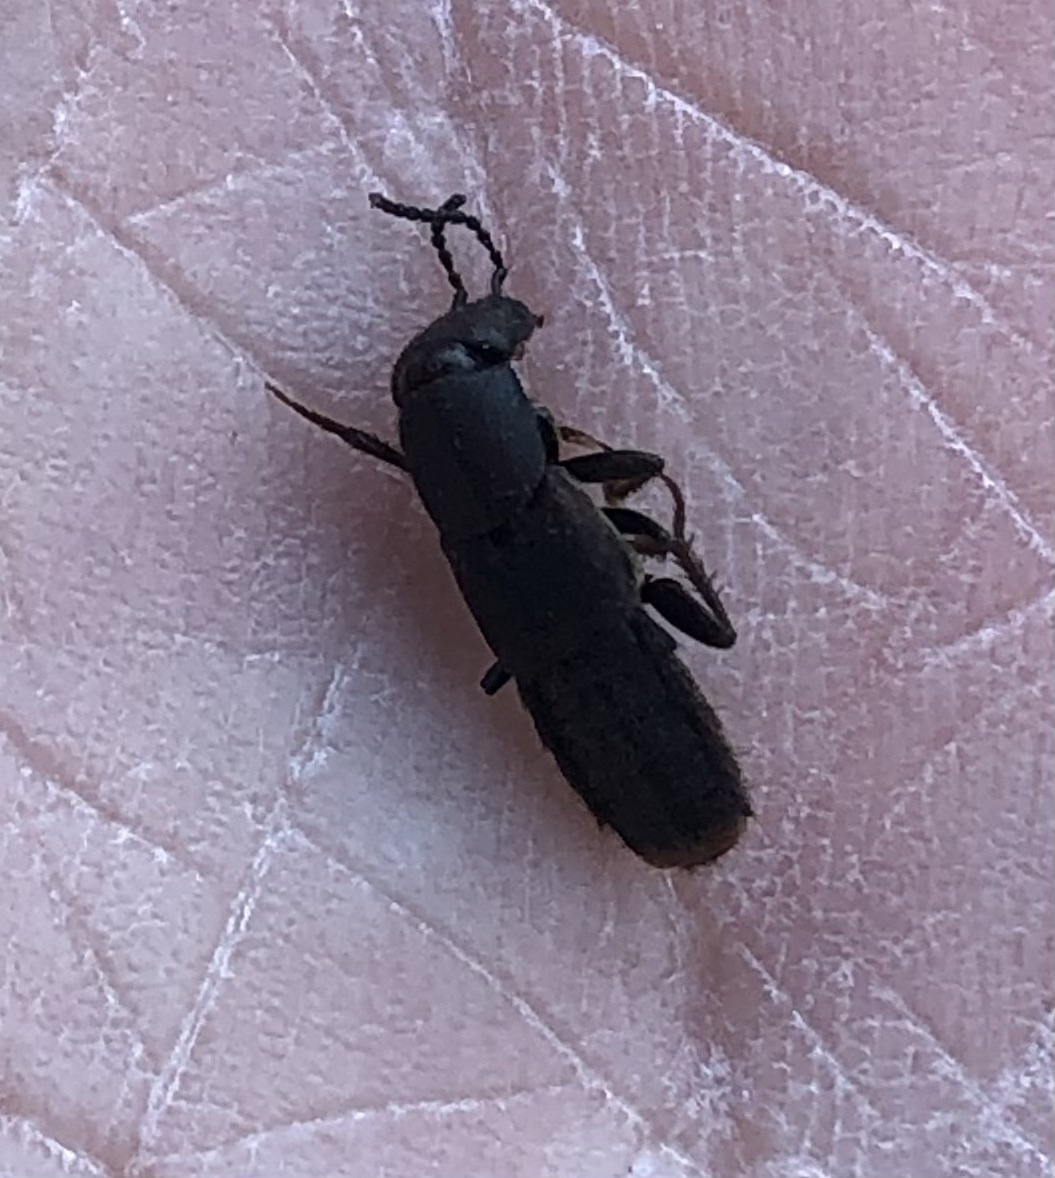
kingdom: Animalia
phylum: Arthropoda
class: Insecta
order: Coleoptera
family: Staphylinidae
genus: Platydracus
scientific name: Platydracus mysticus
